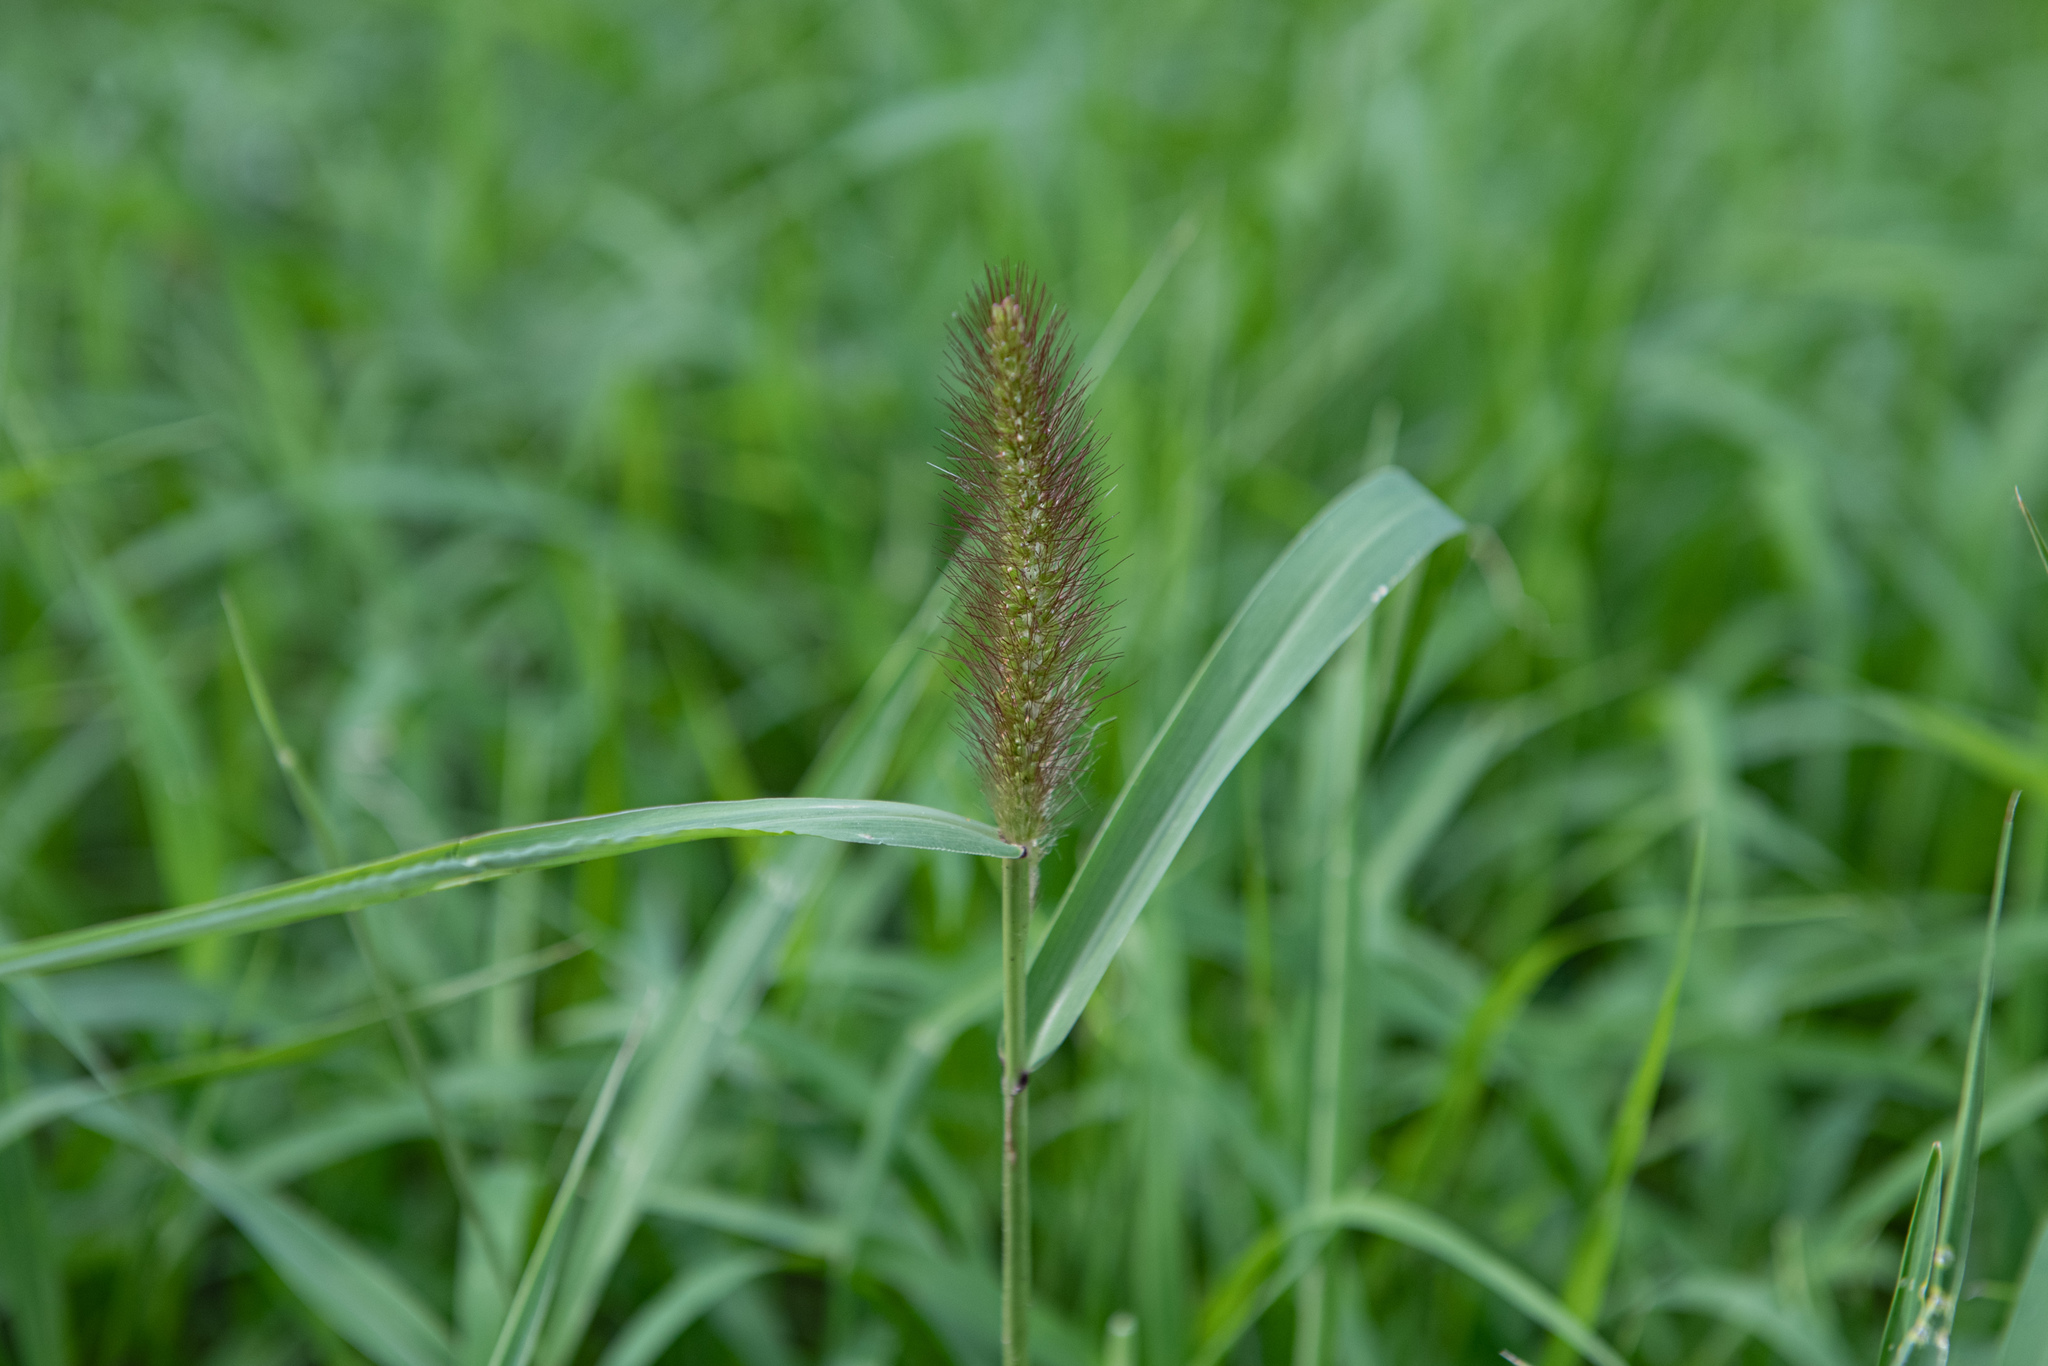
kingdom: Plantae
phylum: Tracheophyta
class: Liliopsida
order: Poales
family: Poaceae
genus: Setaria
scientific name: Setaria viridis
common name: Green bristlegrass
